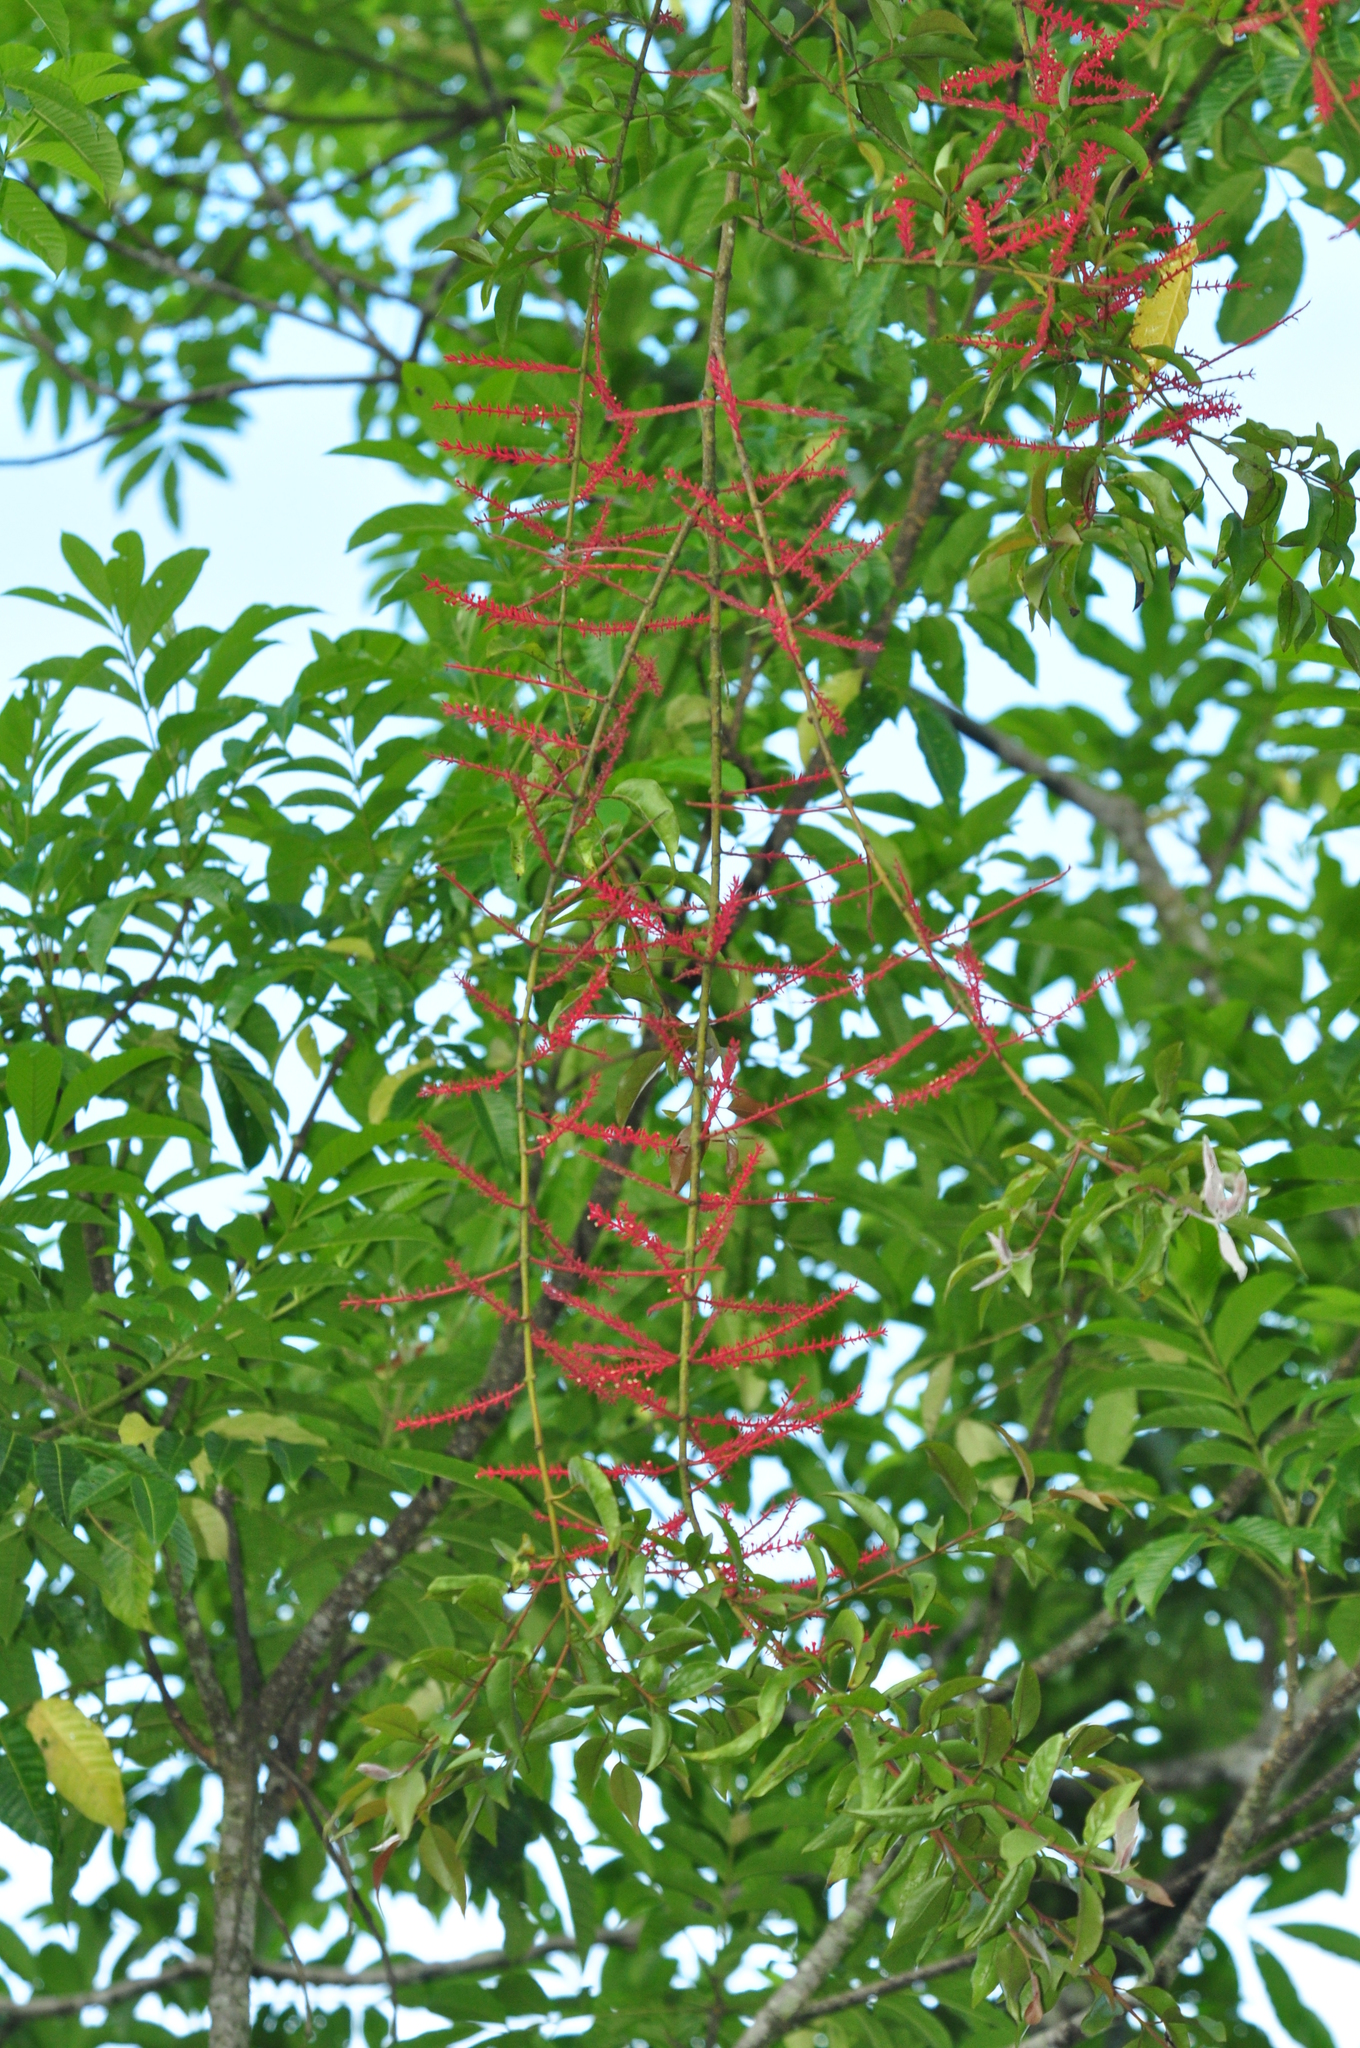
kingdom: Plantae
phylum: Tracheophyta
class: Magnoliopsida
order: Santalales
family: Loranthaceae
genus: Helixanthera
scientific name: Helixanthera parasitica
